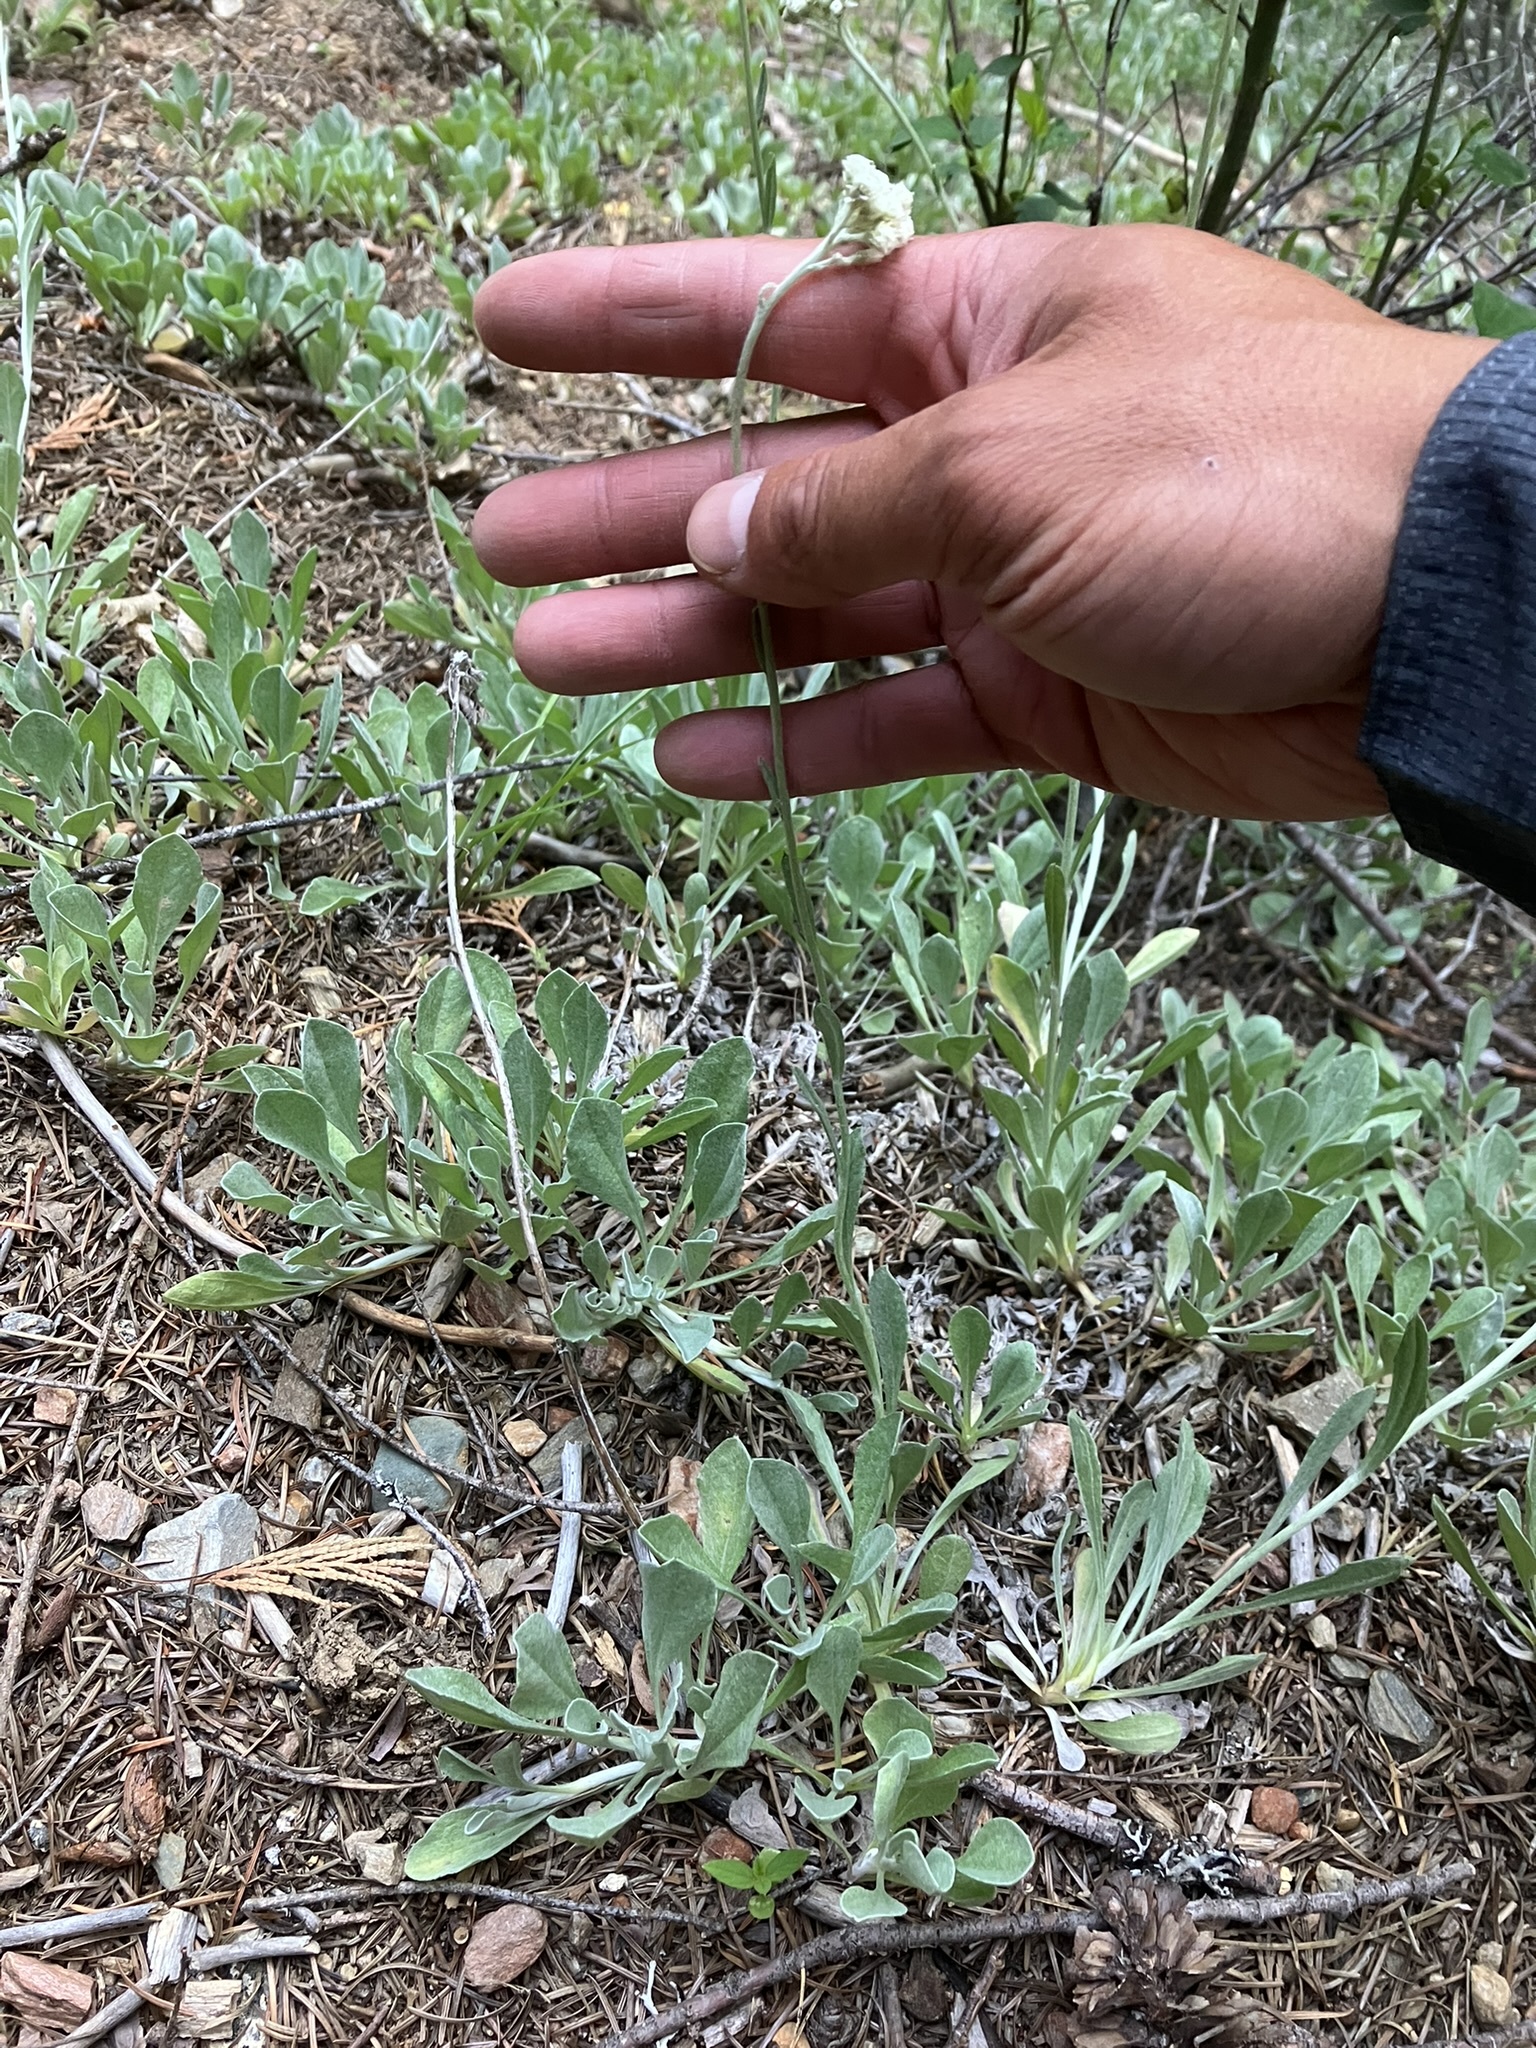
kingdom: Plantae
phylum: Tracheophyta
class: Magnoliopsida
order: Asterales
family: Asteraceae
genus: Antennaria
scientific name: Antennaria argentea
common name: Silver pussytoes
